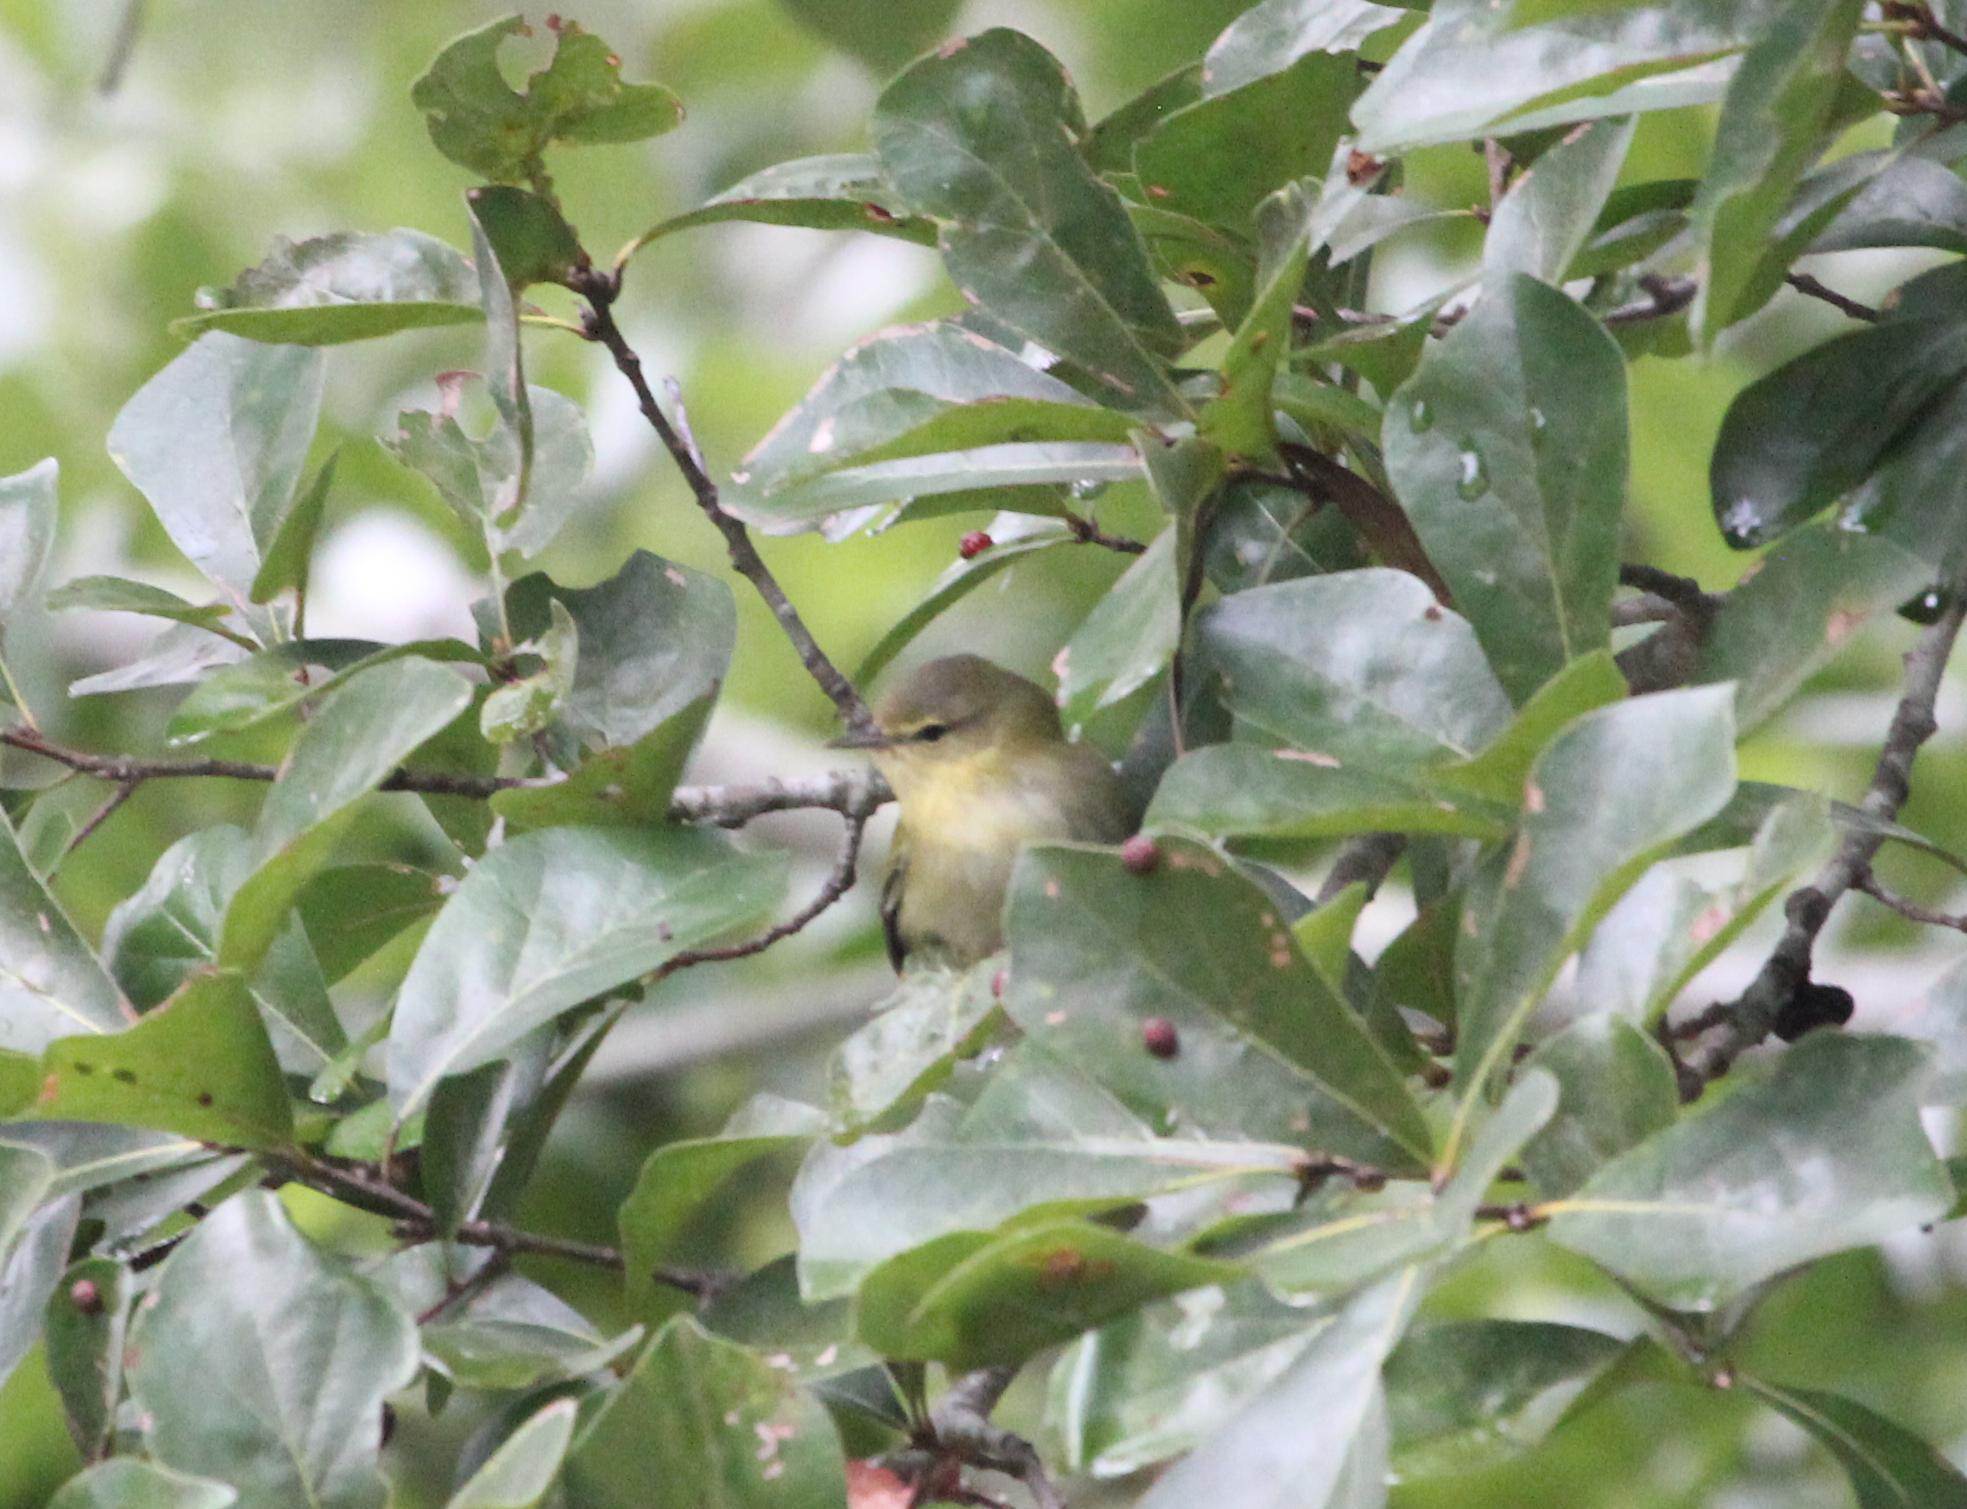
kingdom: Animalia
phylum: Chordata
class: Aves
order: Passeriformes
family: Parulidae
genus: Leiothlypis
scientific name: Leiothlypis peregrina
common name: Tennessee warbler
